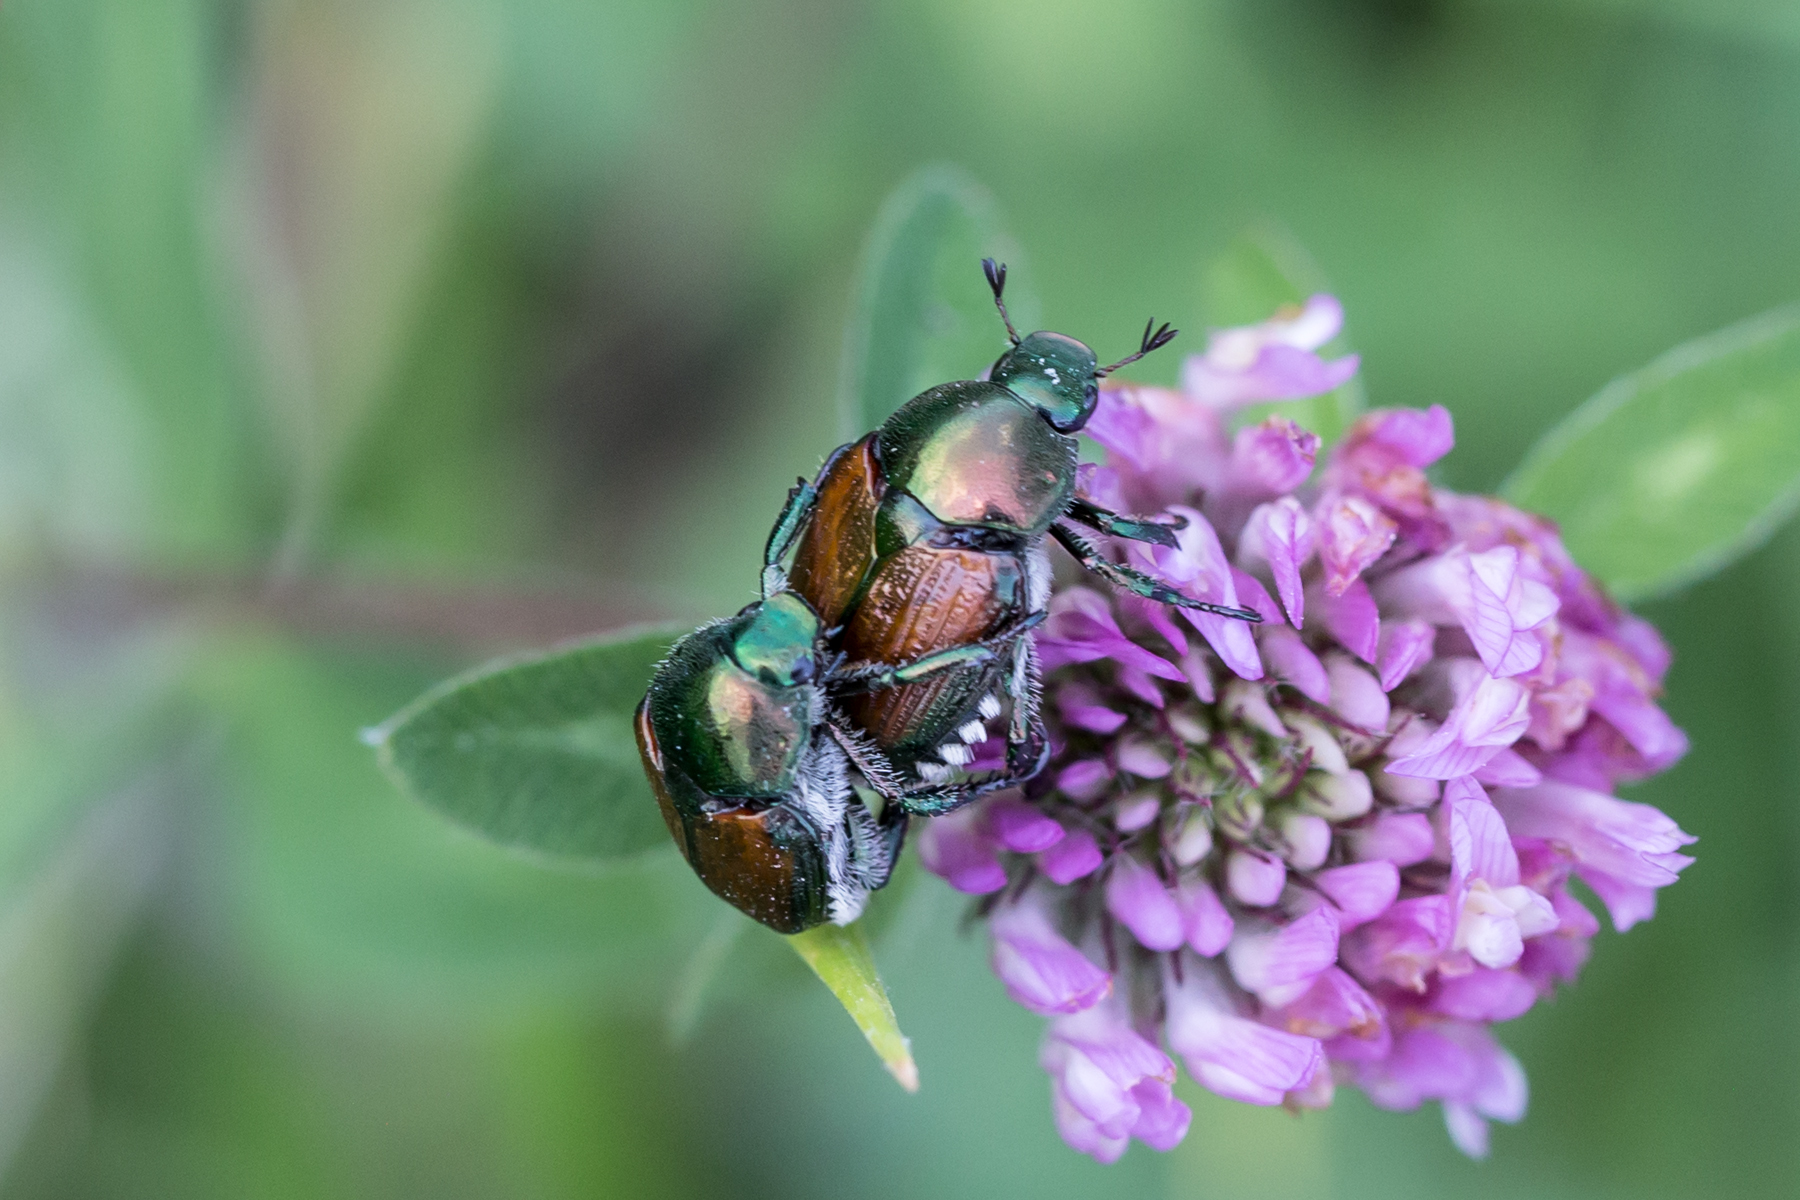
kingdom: Animalia
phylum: Arthropoda
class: Insecta
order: Coleoptera
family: Scarabaeidae
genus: Popillia
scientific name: Popillia japonica
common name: Japanese beetle
